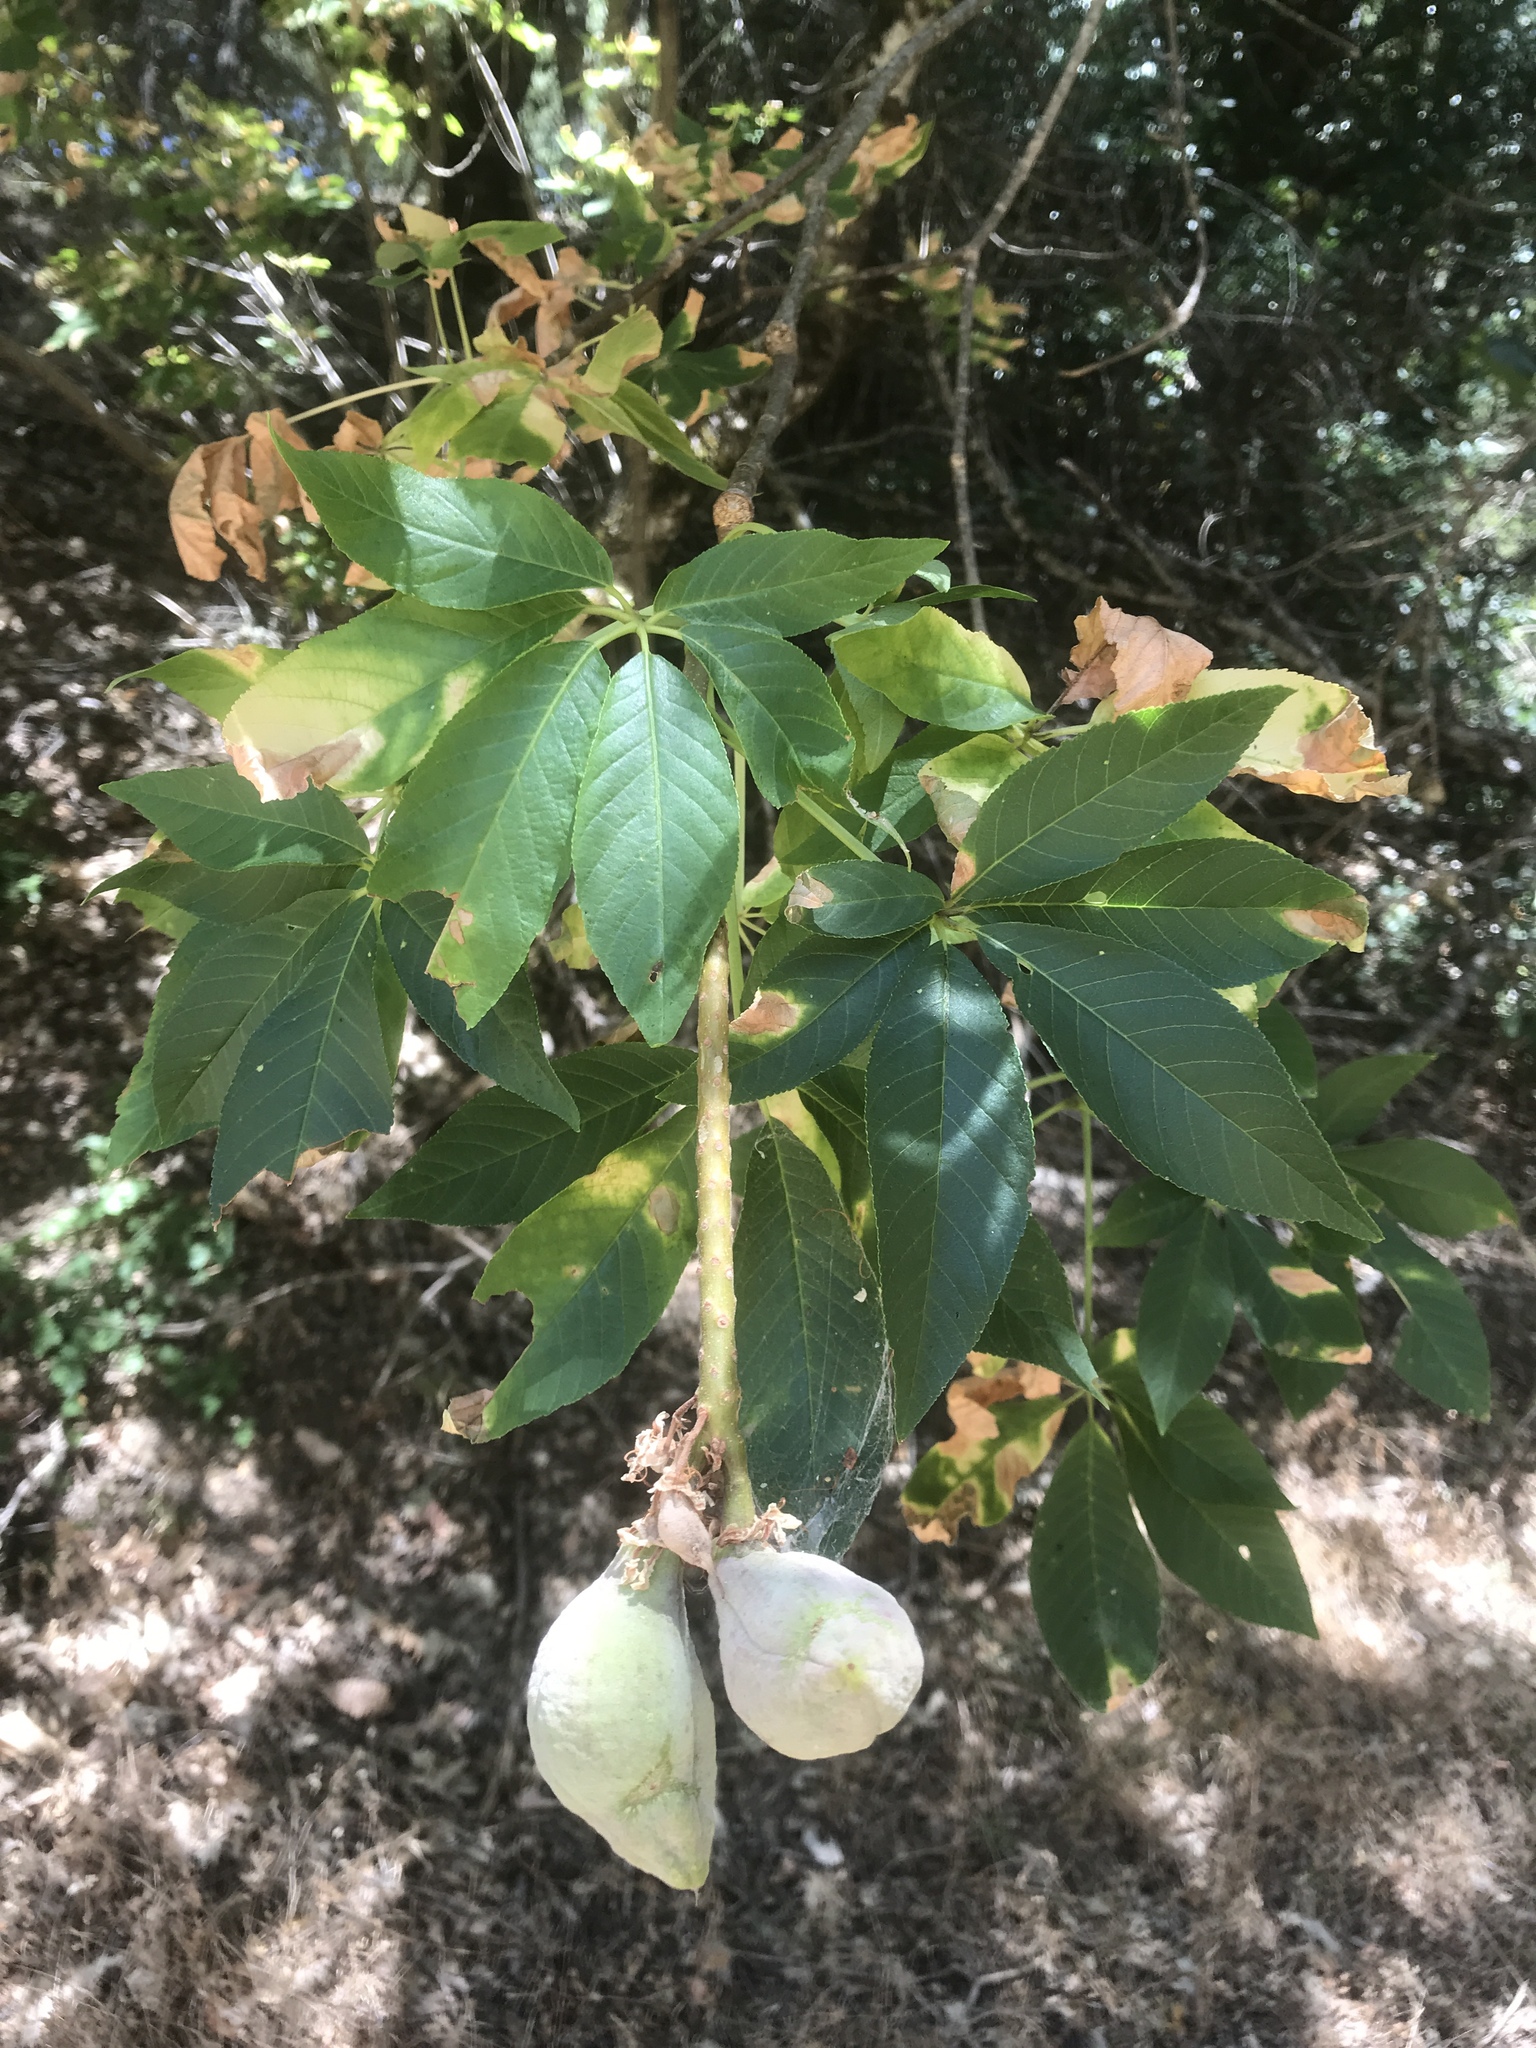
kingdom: Plantae
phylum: Tracheophyta
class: Magnoliopsida
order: Sapindales
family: Sapindaceae
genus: Aesculus
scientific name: Aesculus californica
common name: California buckeye
